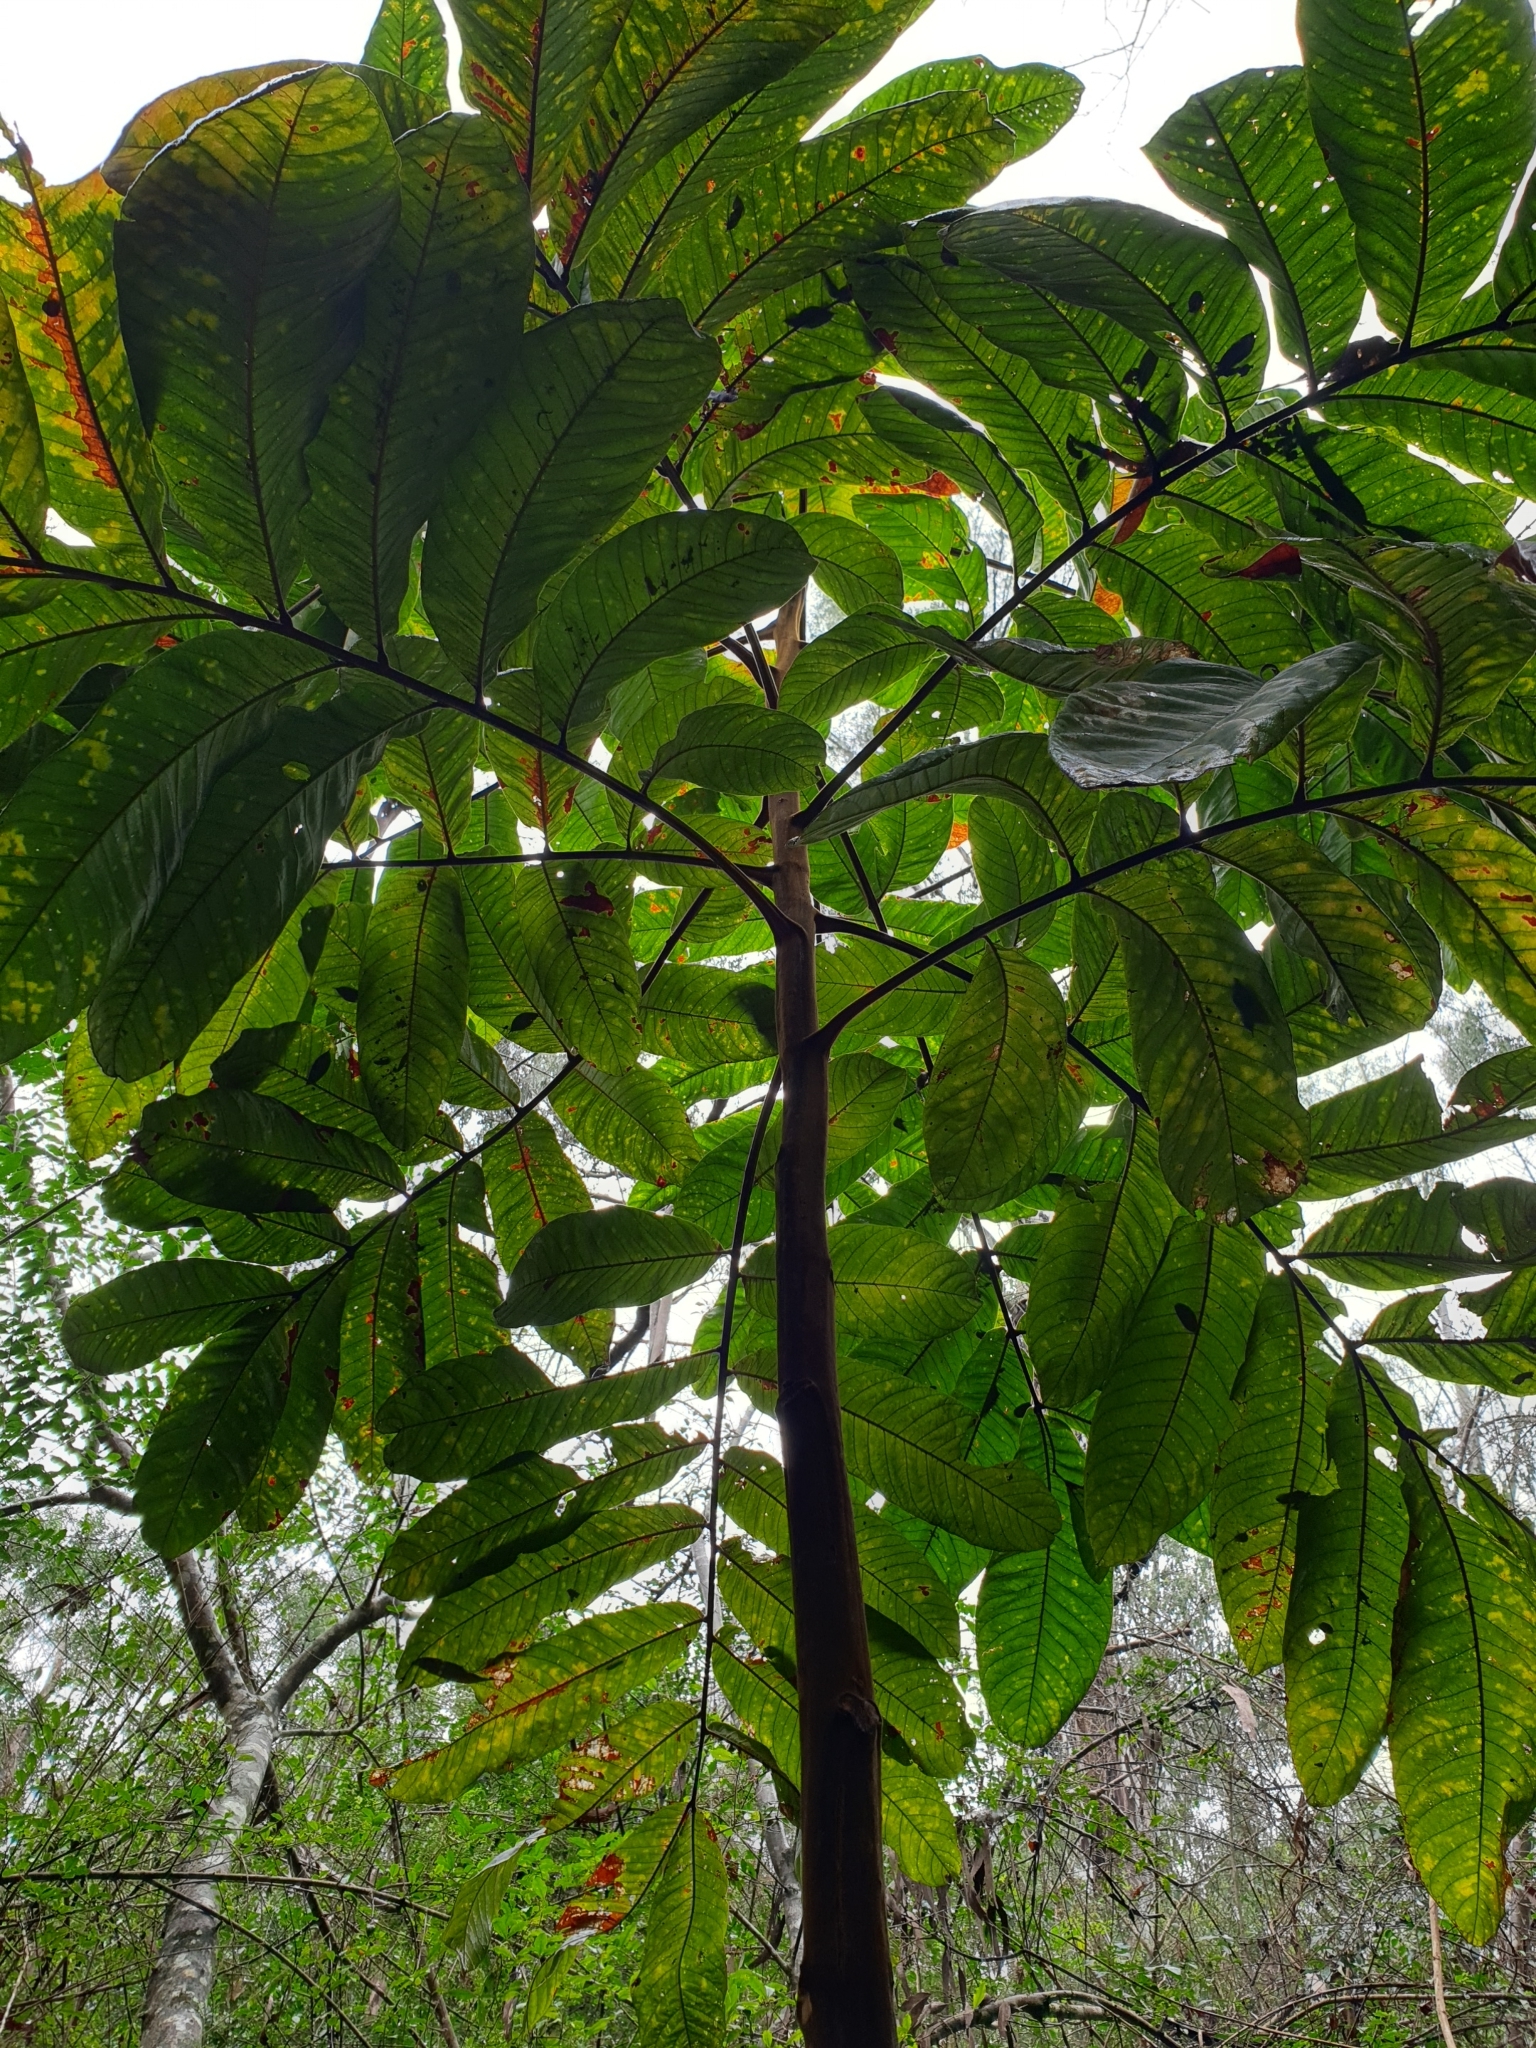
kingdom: Plantae
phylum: Tracheophyta
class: Magnoliopsida
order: Sapindales
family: Sapindaceae
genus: Diploglottis
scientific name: Diploglottis australis
